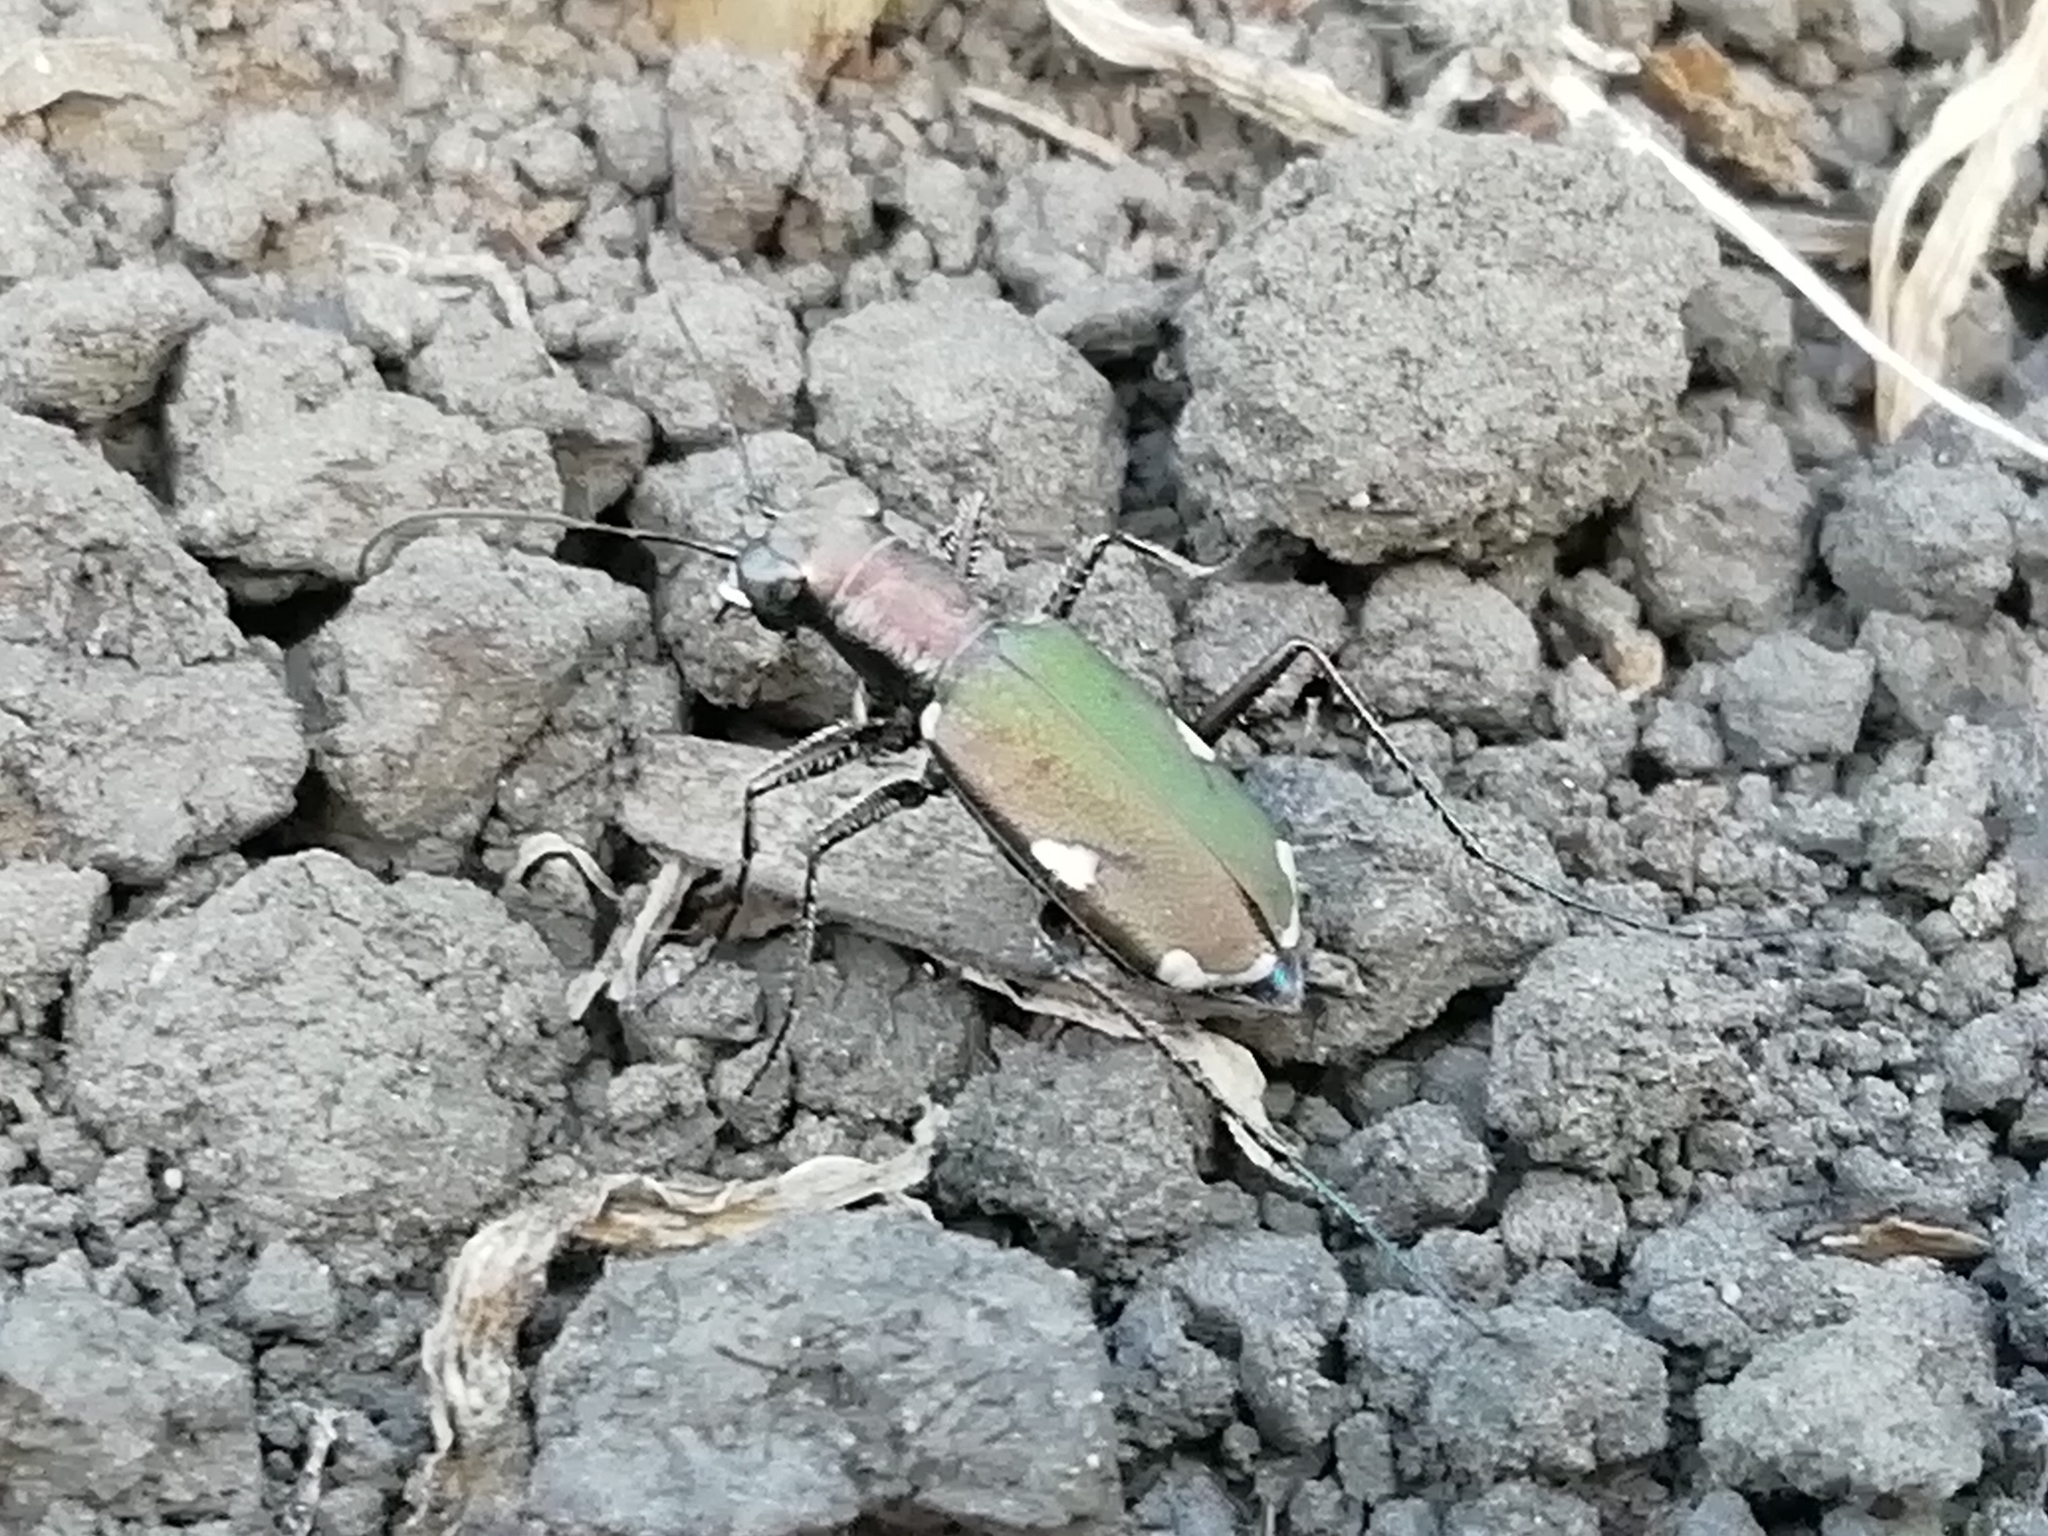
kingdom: Animalia
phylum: Arthropoda
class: Insecta
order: Coleoptera
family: Carabidae
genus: Cylindera
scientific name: Cylindera germanica
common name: Cliff tiger beetle
